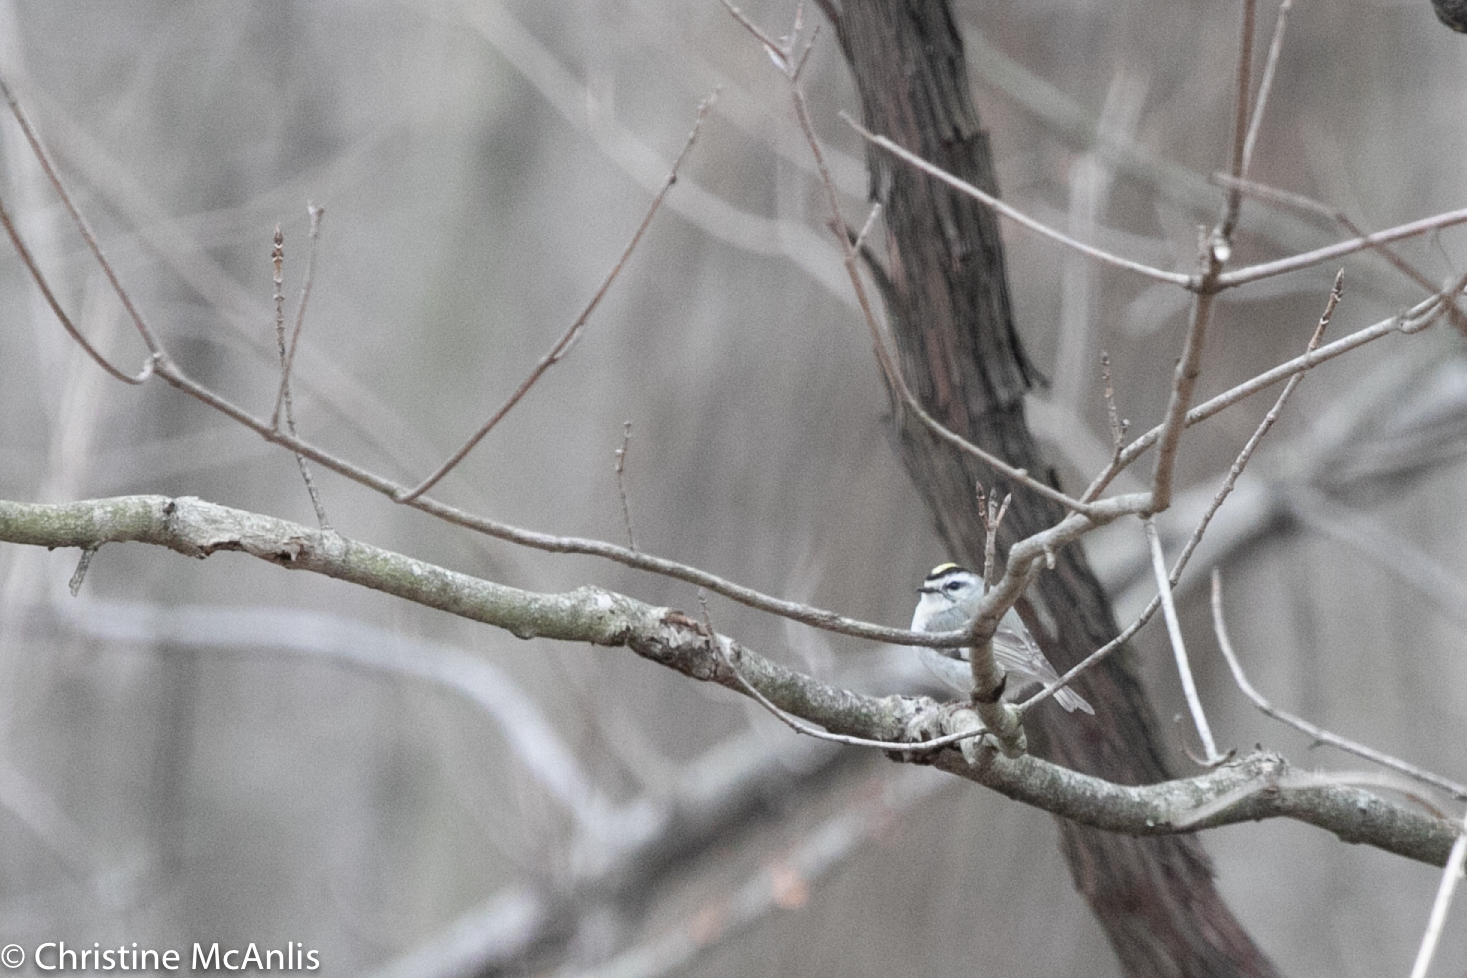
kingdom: Animalia
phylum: Chordata
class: Aves
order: Passeriformes
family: Regulidae
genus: Regulus
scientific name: Regulus satrapa
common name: Golden-crowned kinglet
